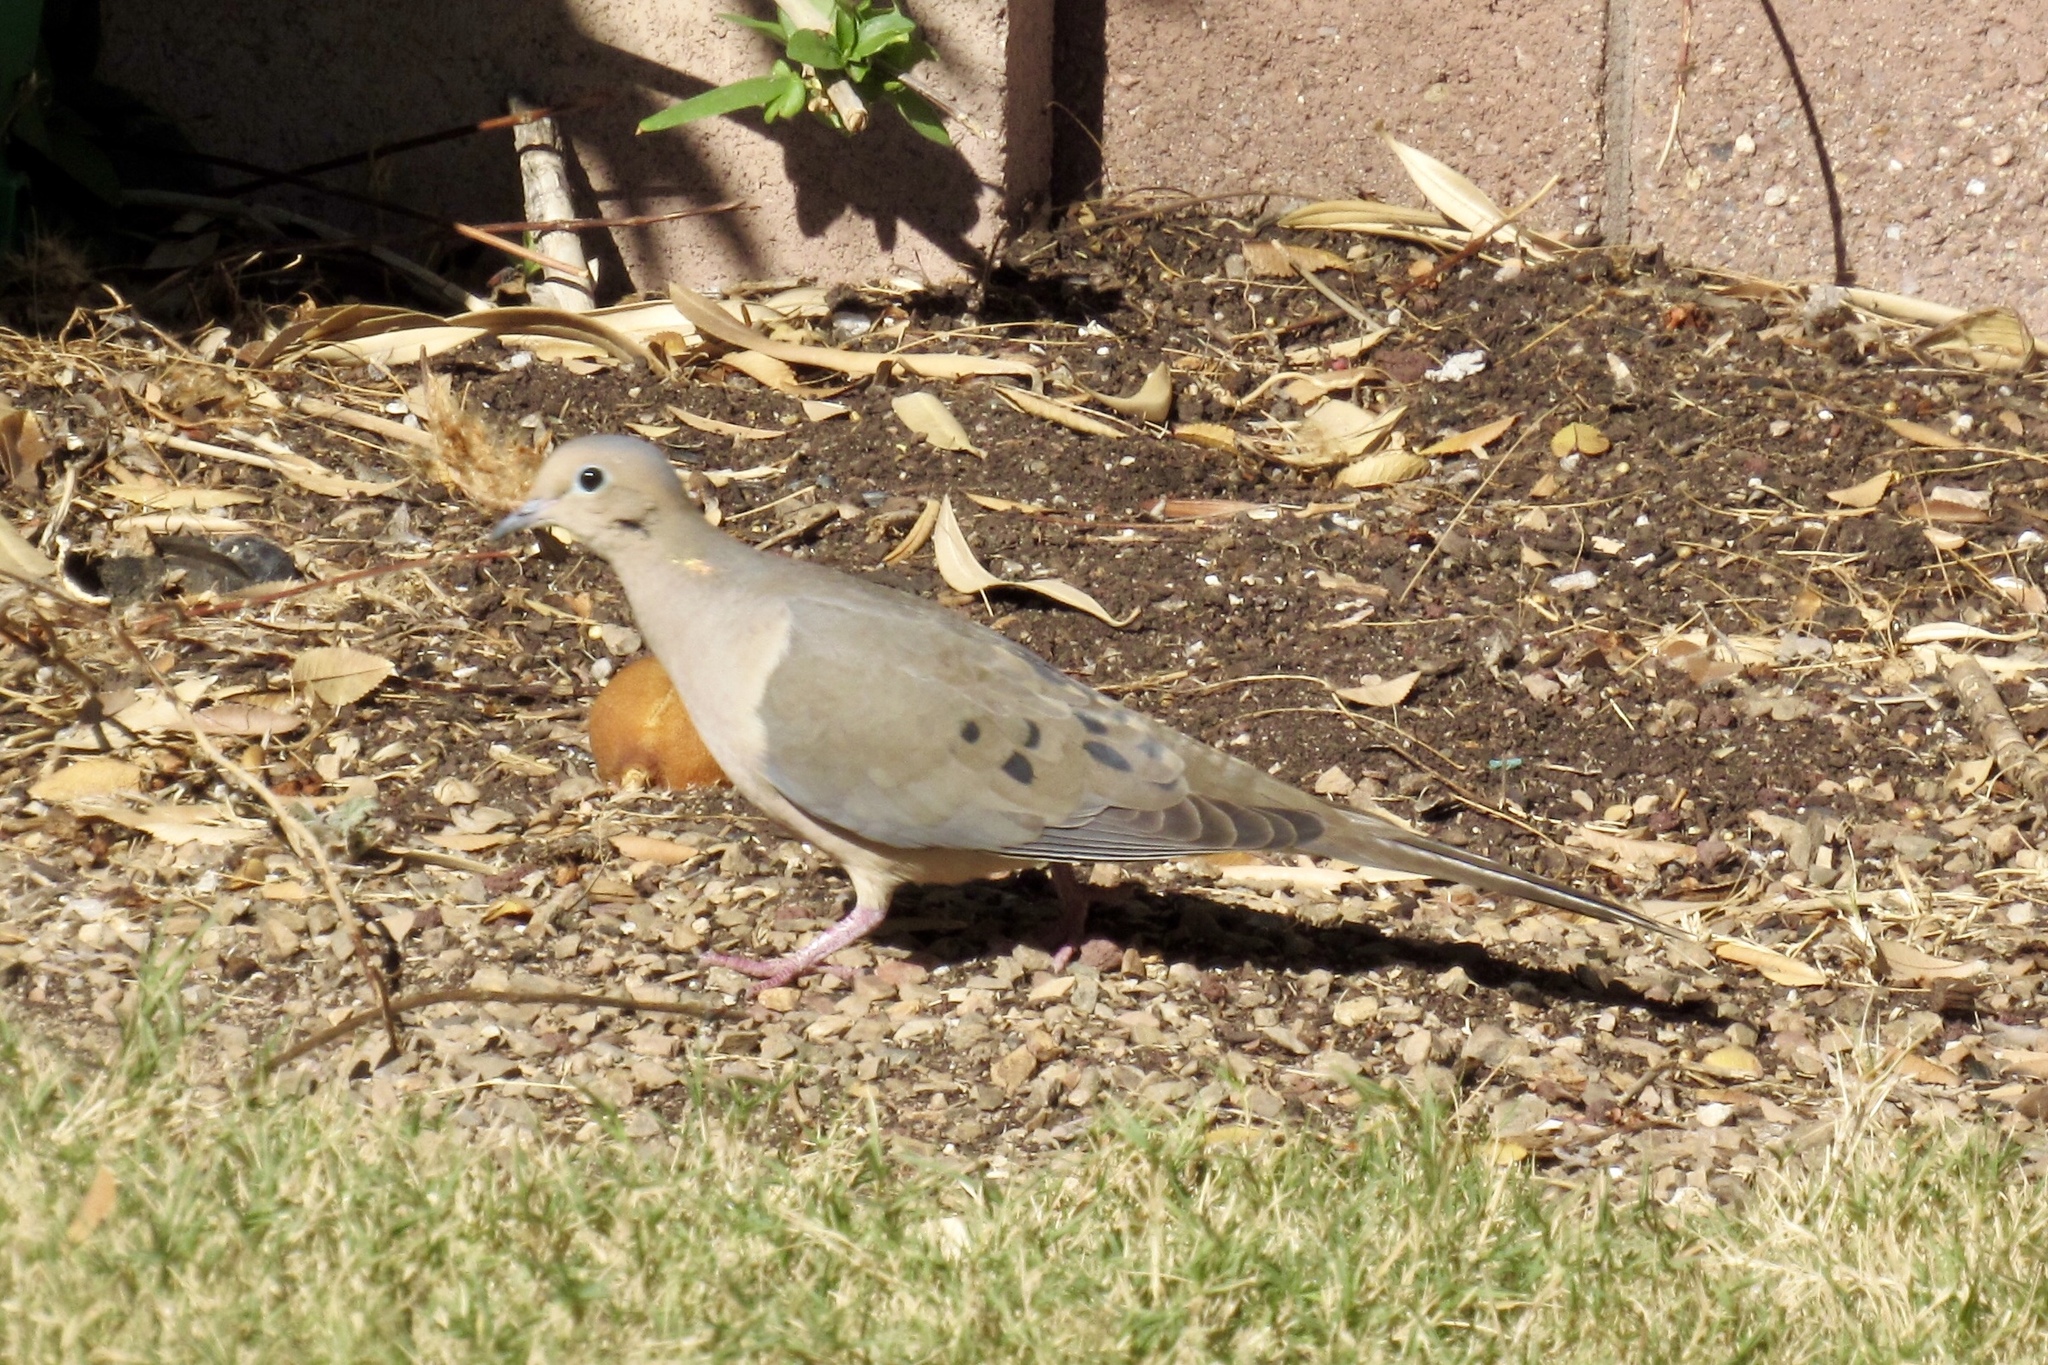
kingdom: Animalia
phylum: Chordata
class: Aves
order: Columbiformes
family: Columbidae
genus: Zenaida
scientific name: Zenaida macroura
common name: Mourning dove
